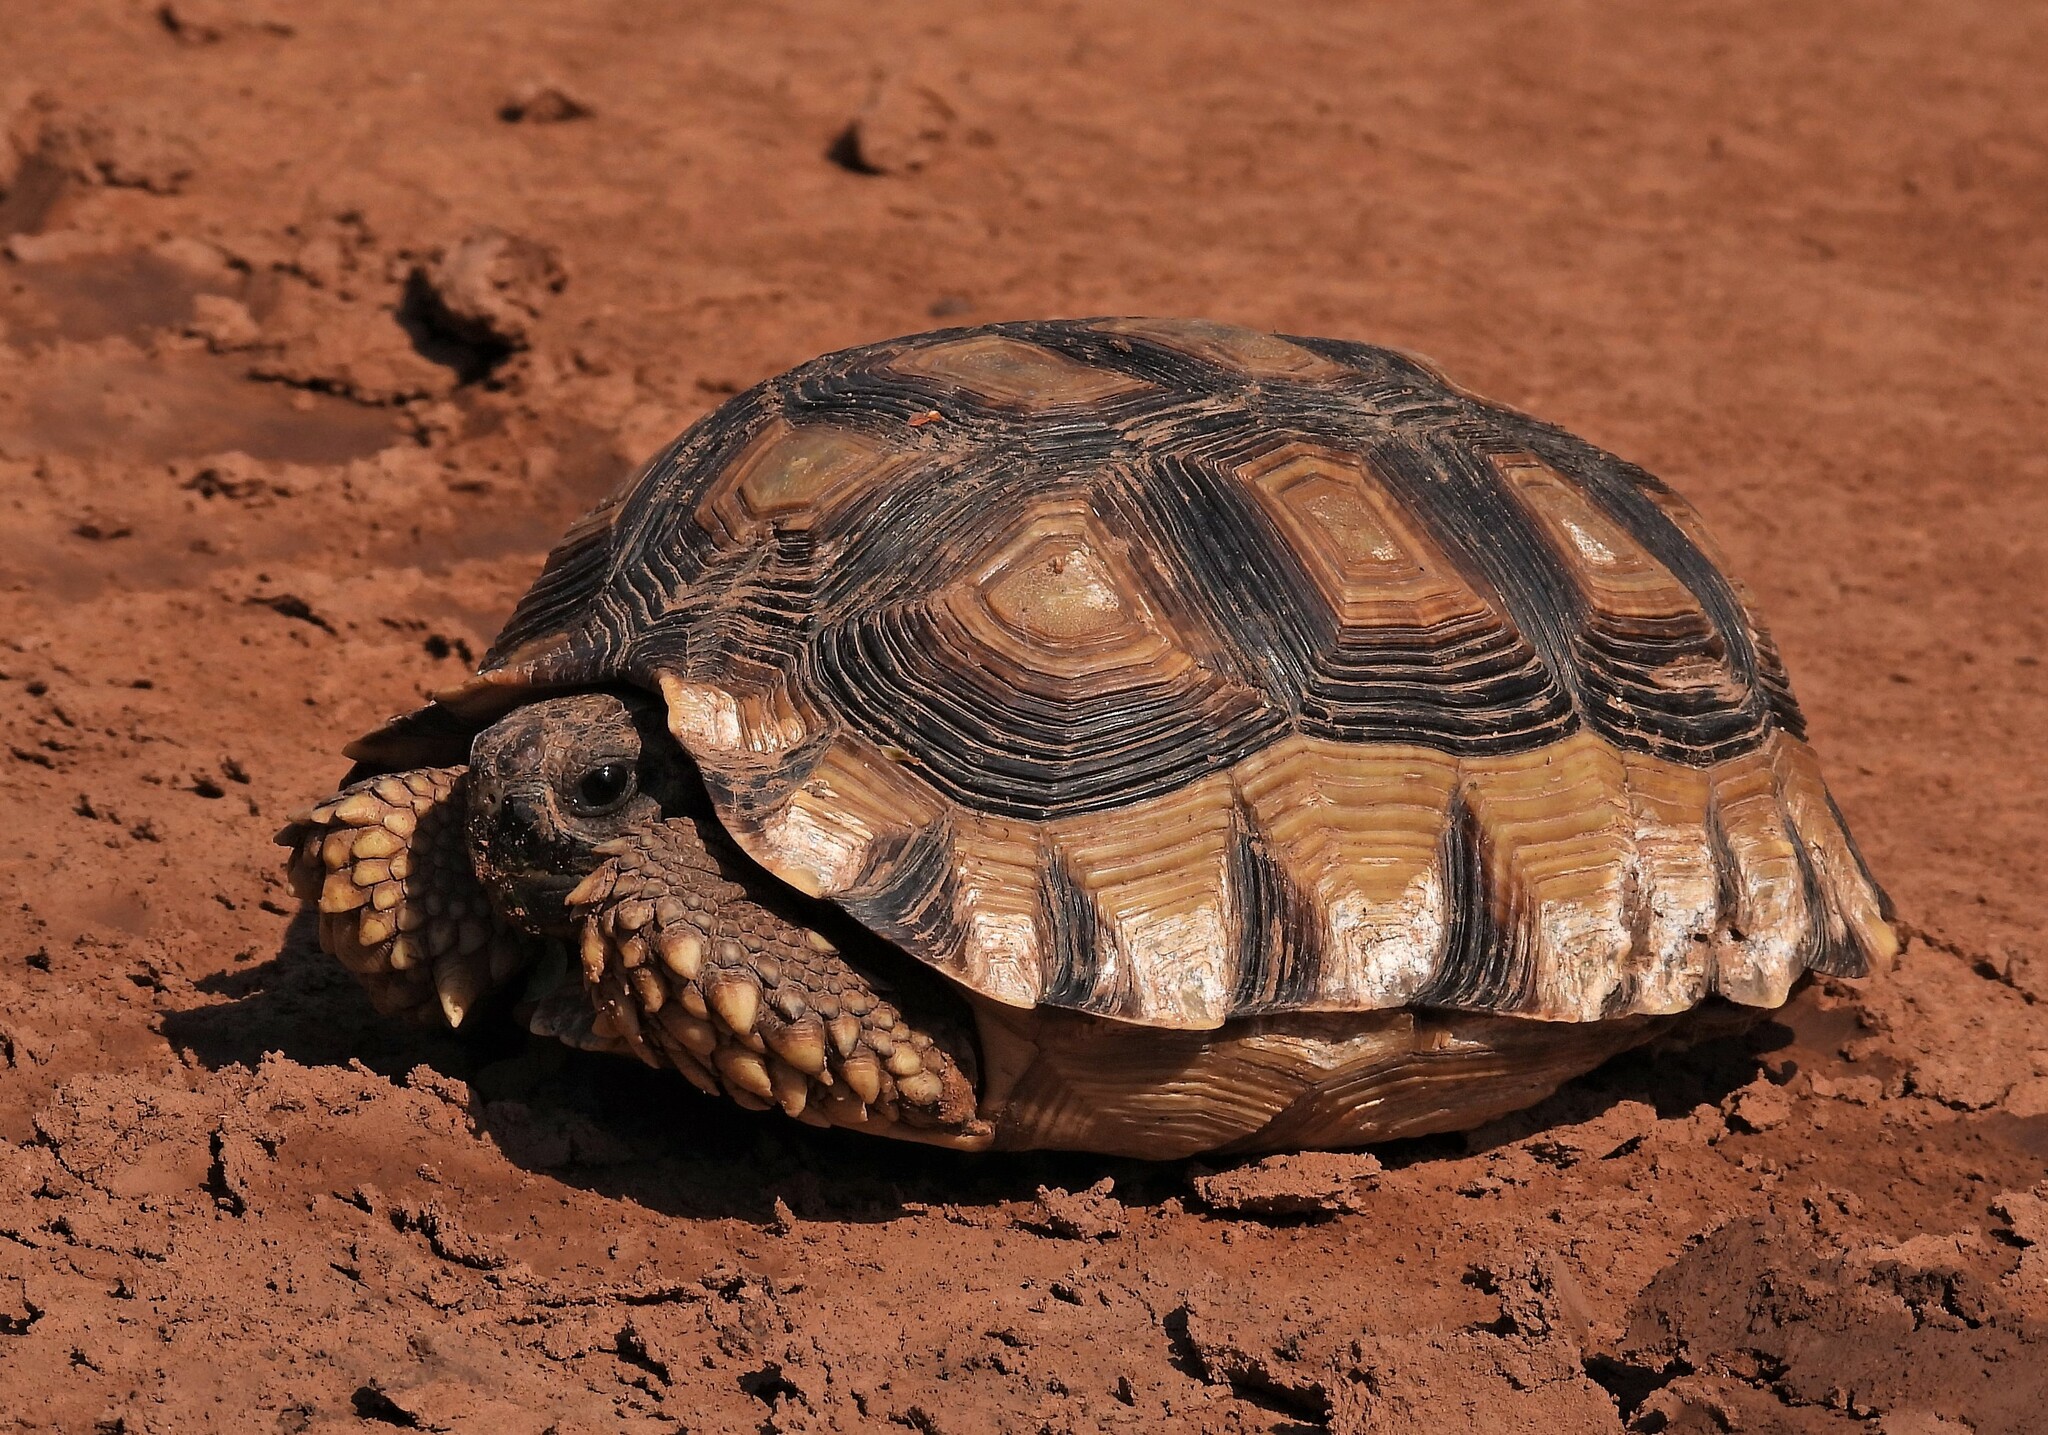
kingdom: Animalia
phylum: Chordata
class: Testudines
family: Testudinidae
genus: Chelonoidis
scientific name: Chelonoidis chilensis
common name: Chaco tortoise
